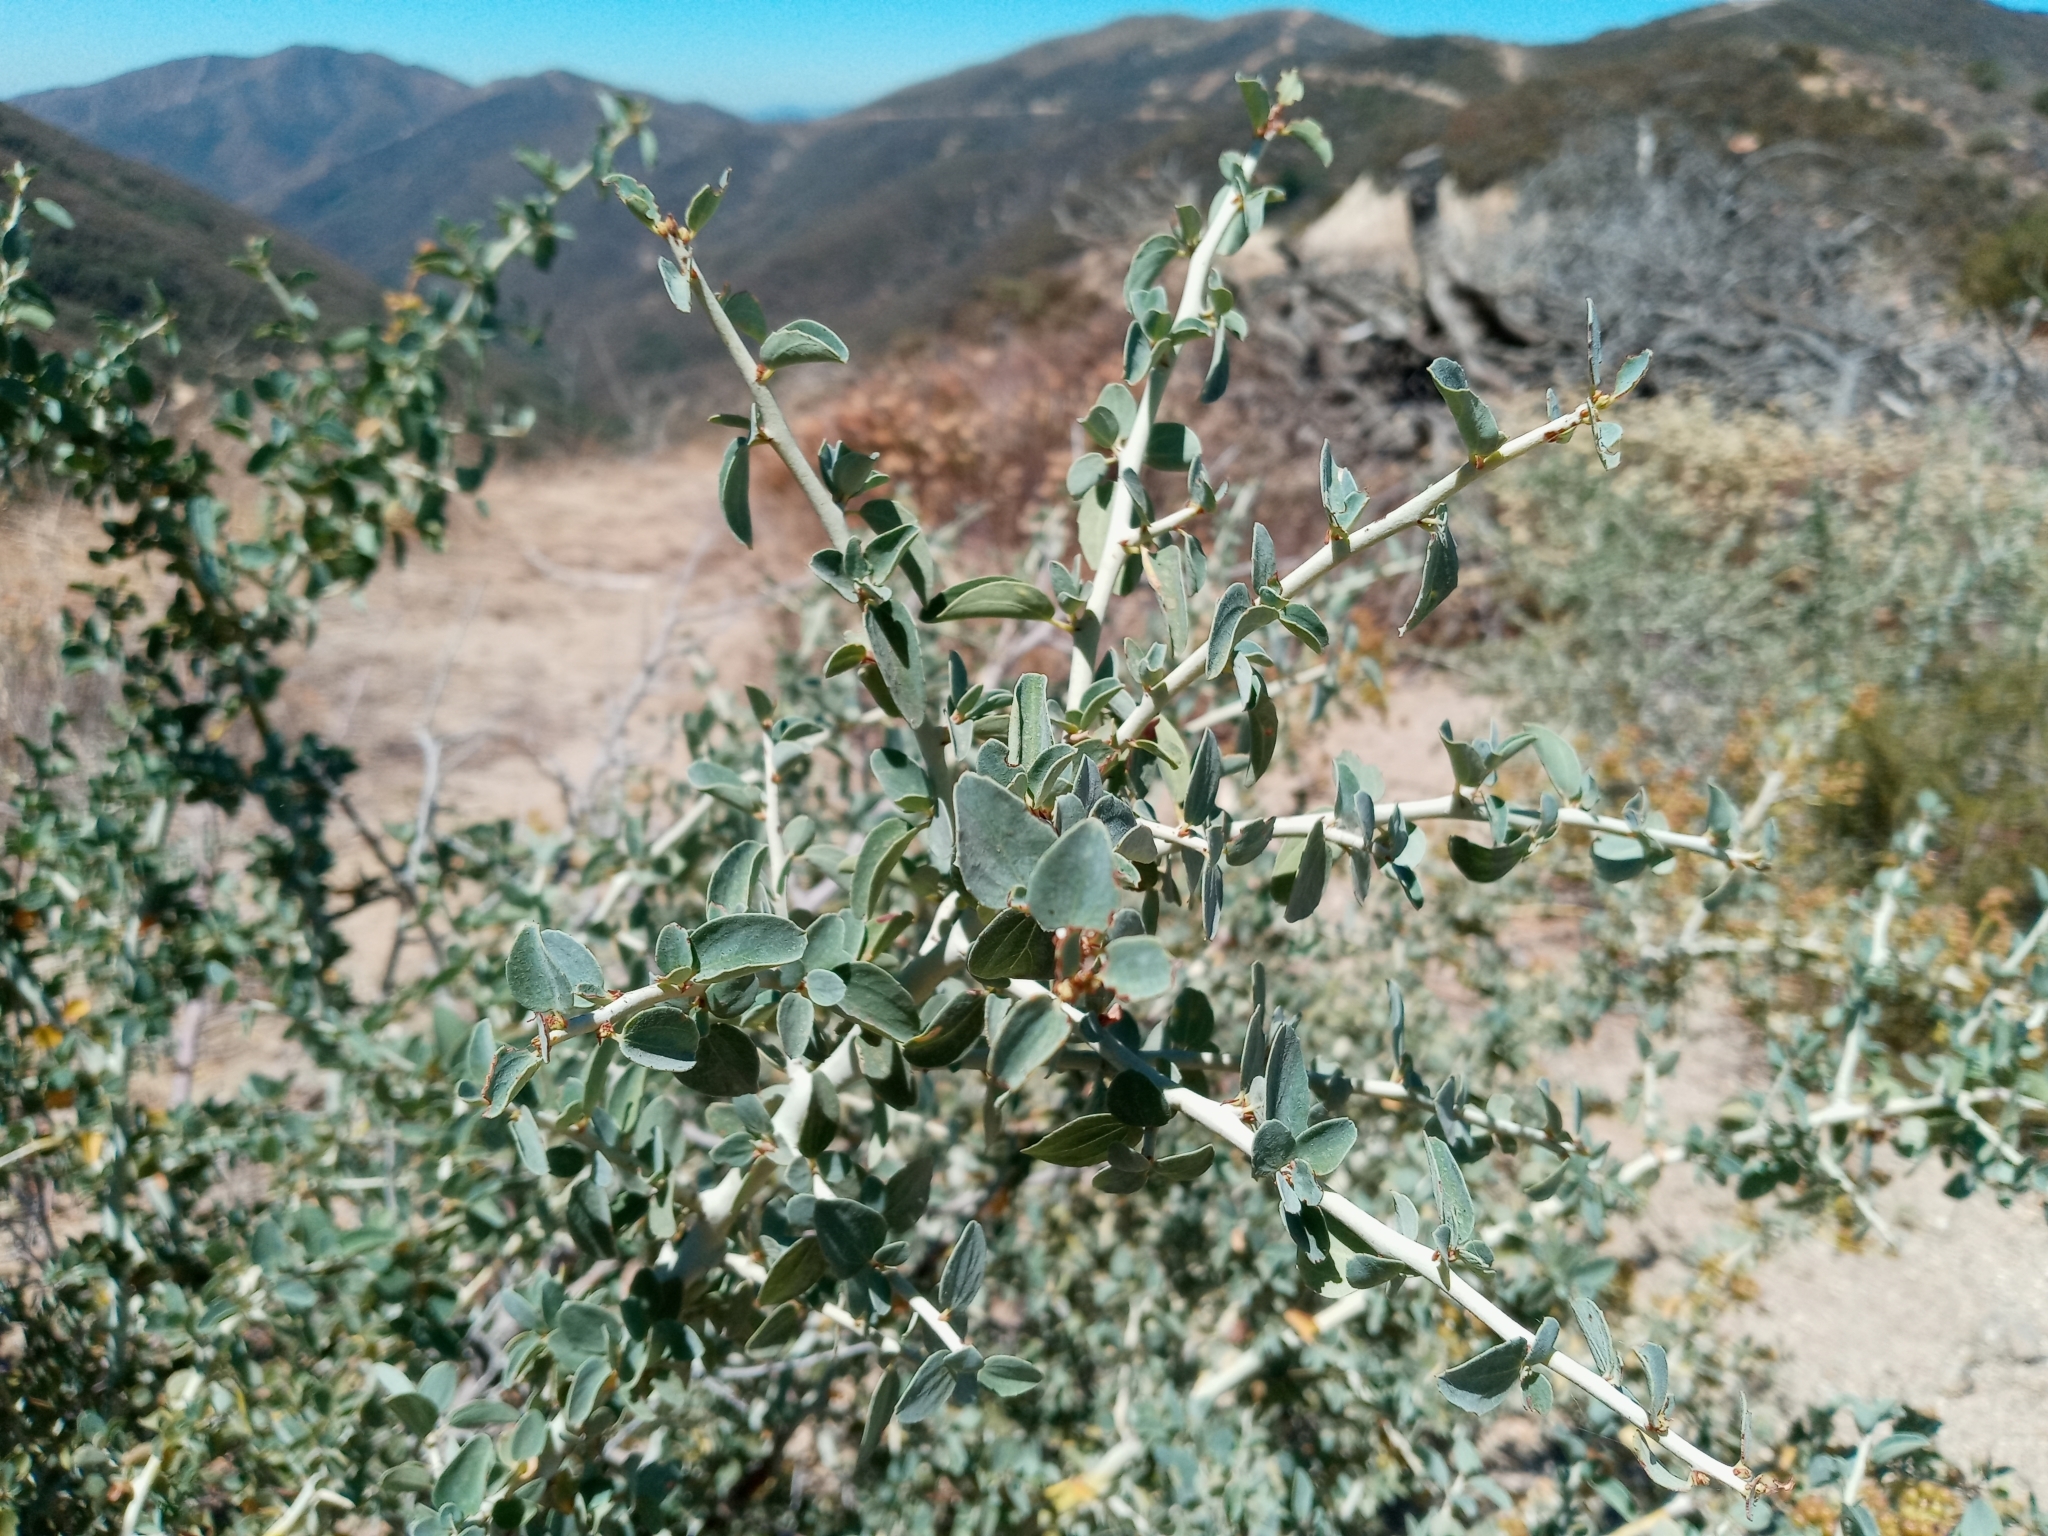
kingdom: Plantae
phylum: Tracheophyta
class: Magnoliopsida
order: Rosales
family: Rhamnaceae
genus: Ceanothus
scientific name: Ceanothus leucodermis
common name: Chaparral whitethorn
